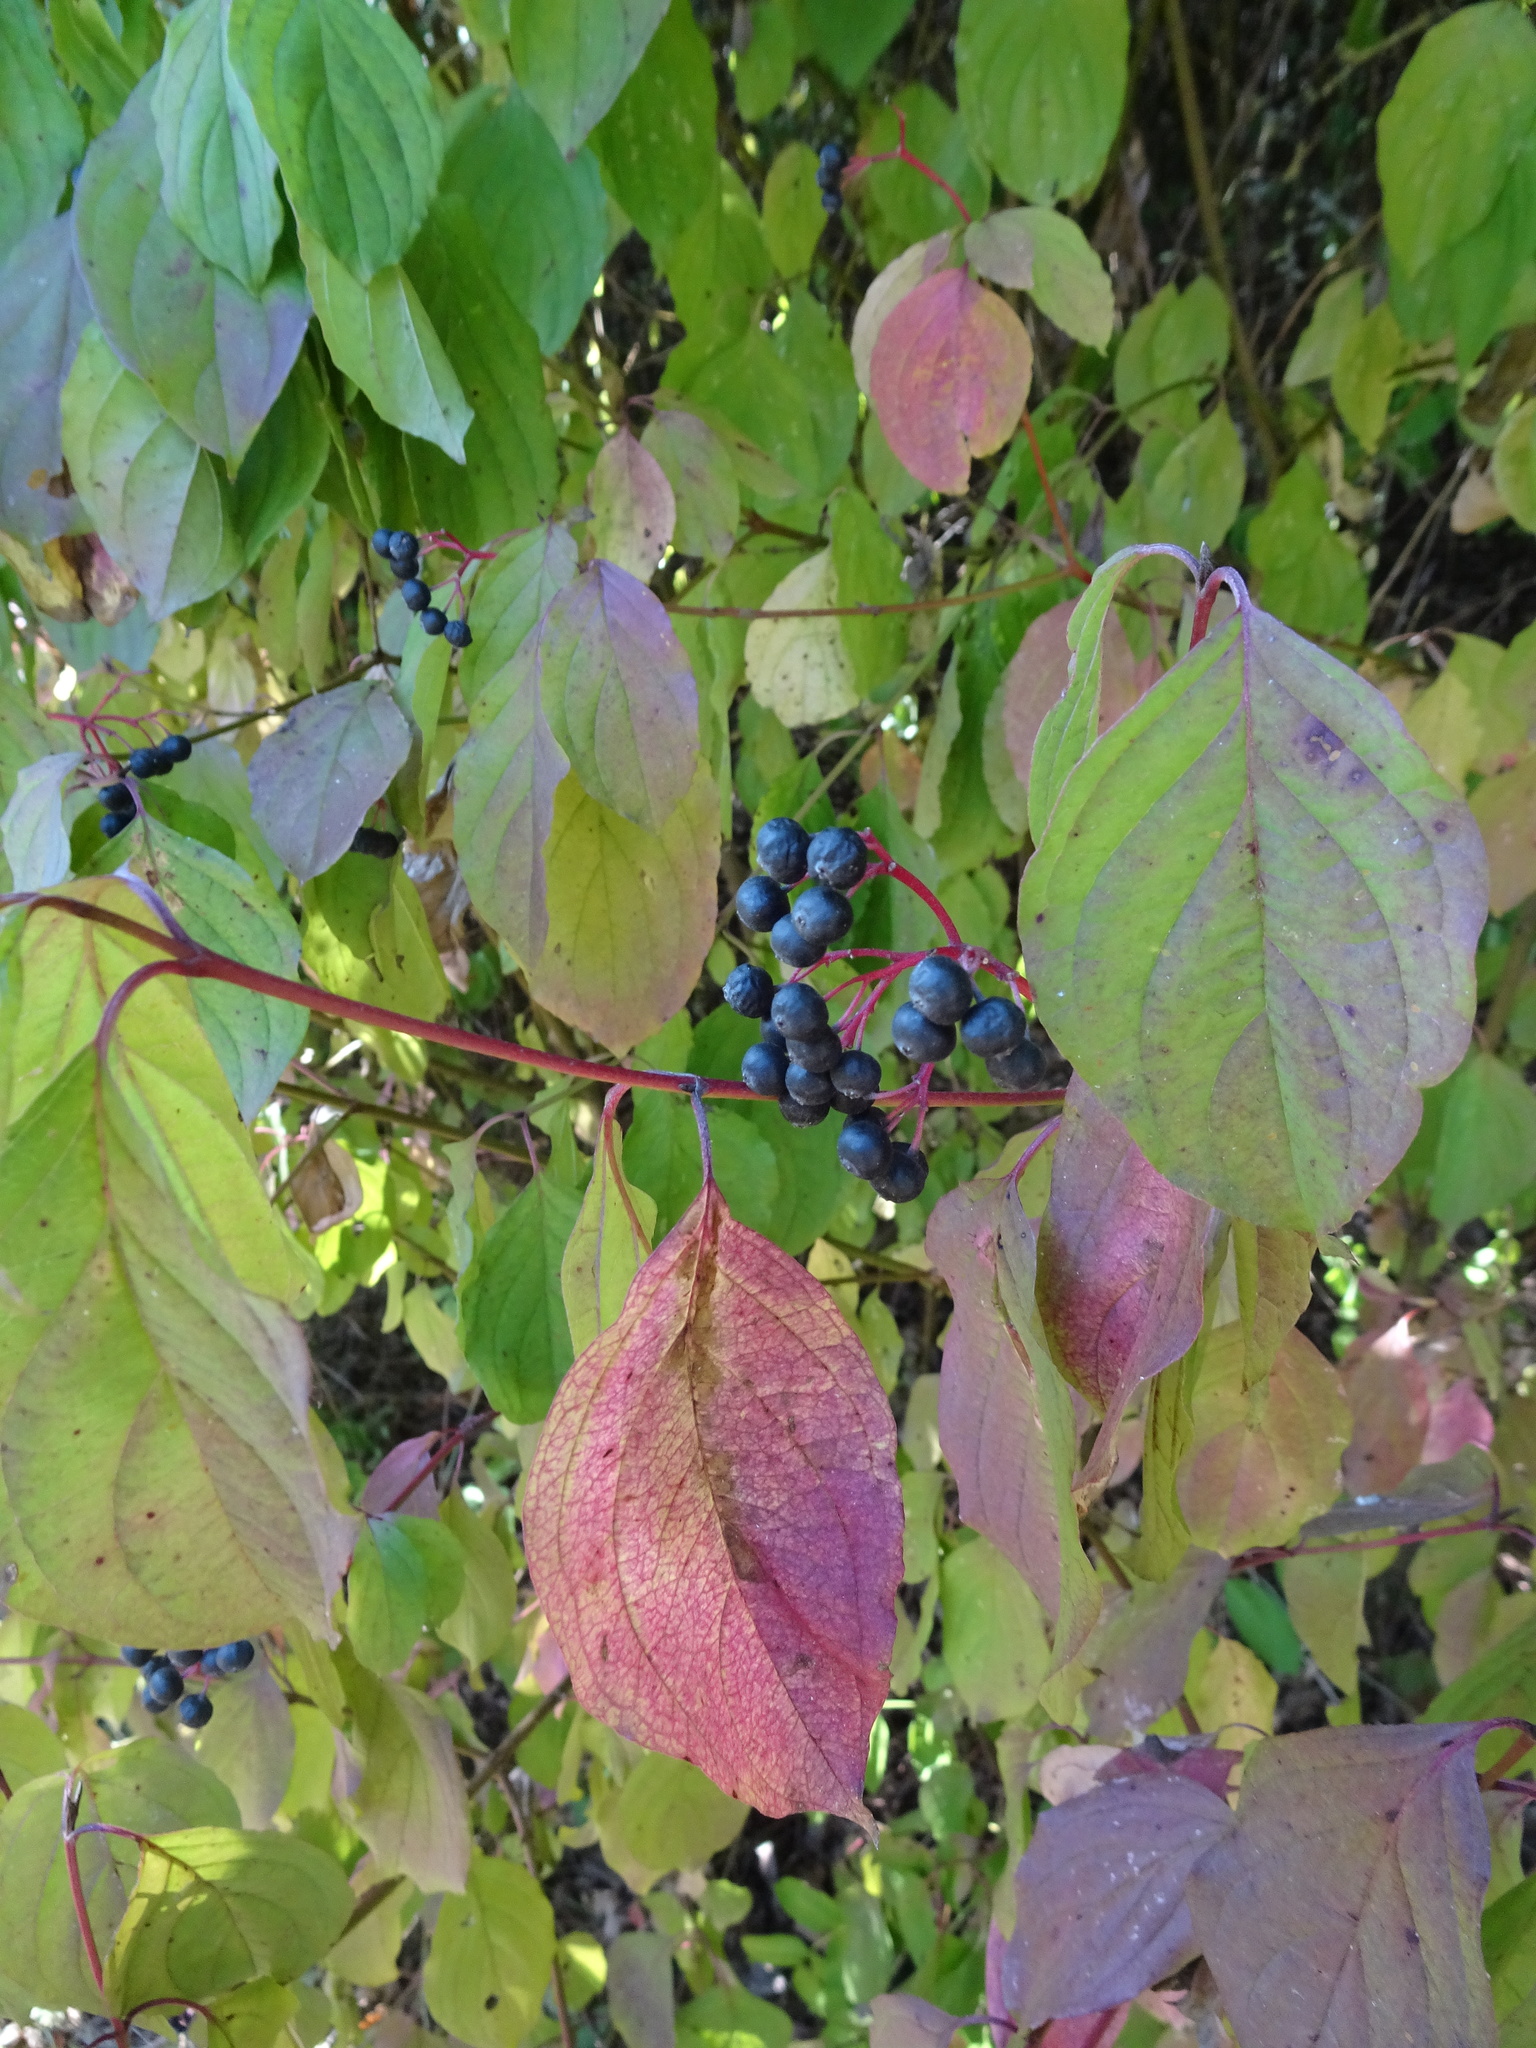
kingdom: Plantae
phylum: Tracheophyta
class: Magnoliopsida
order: Cornales
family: Cornaceae
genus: Cornus
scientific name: Cornus sanguinea
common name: Dogwood
